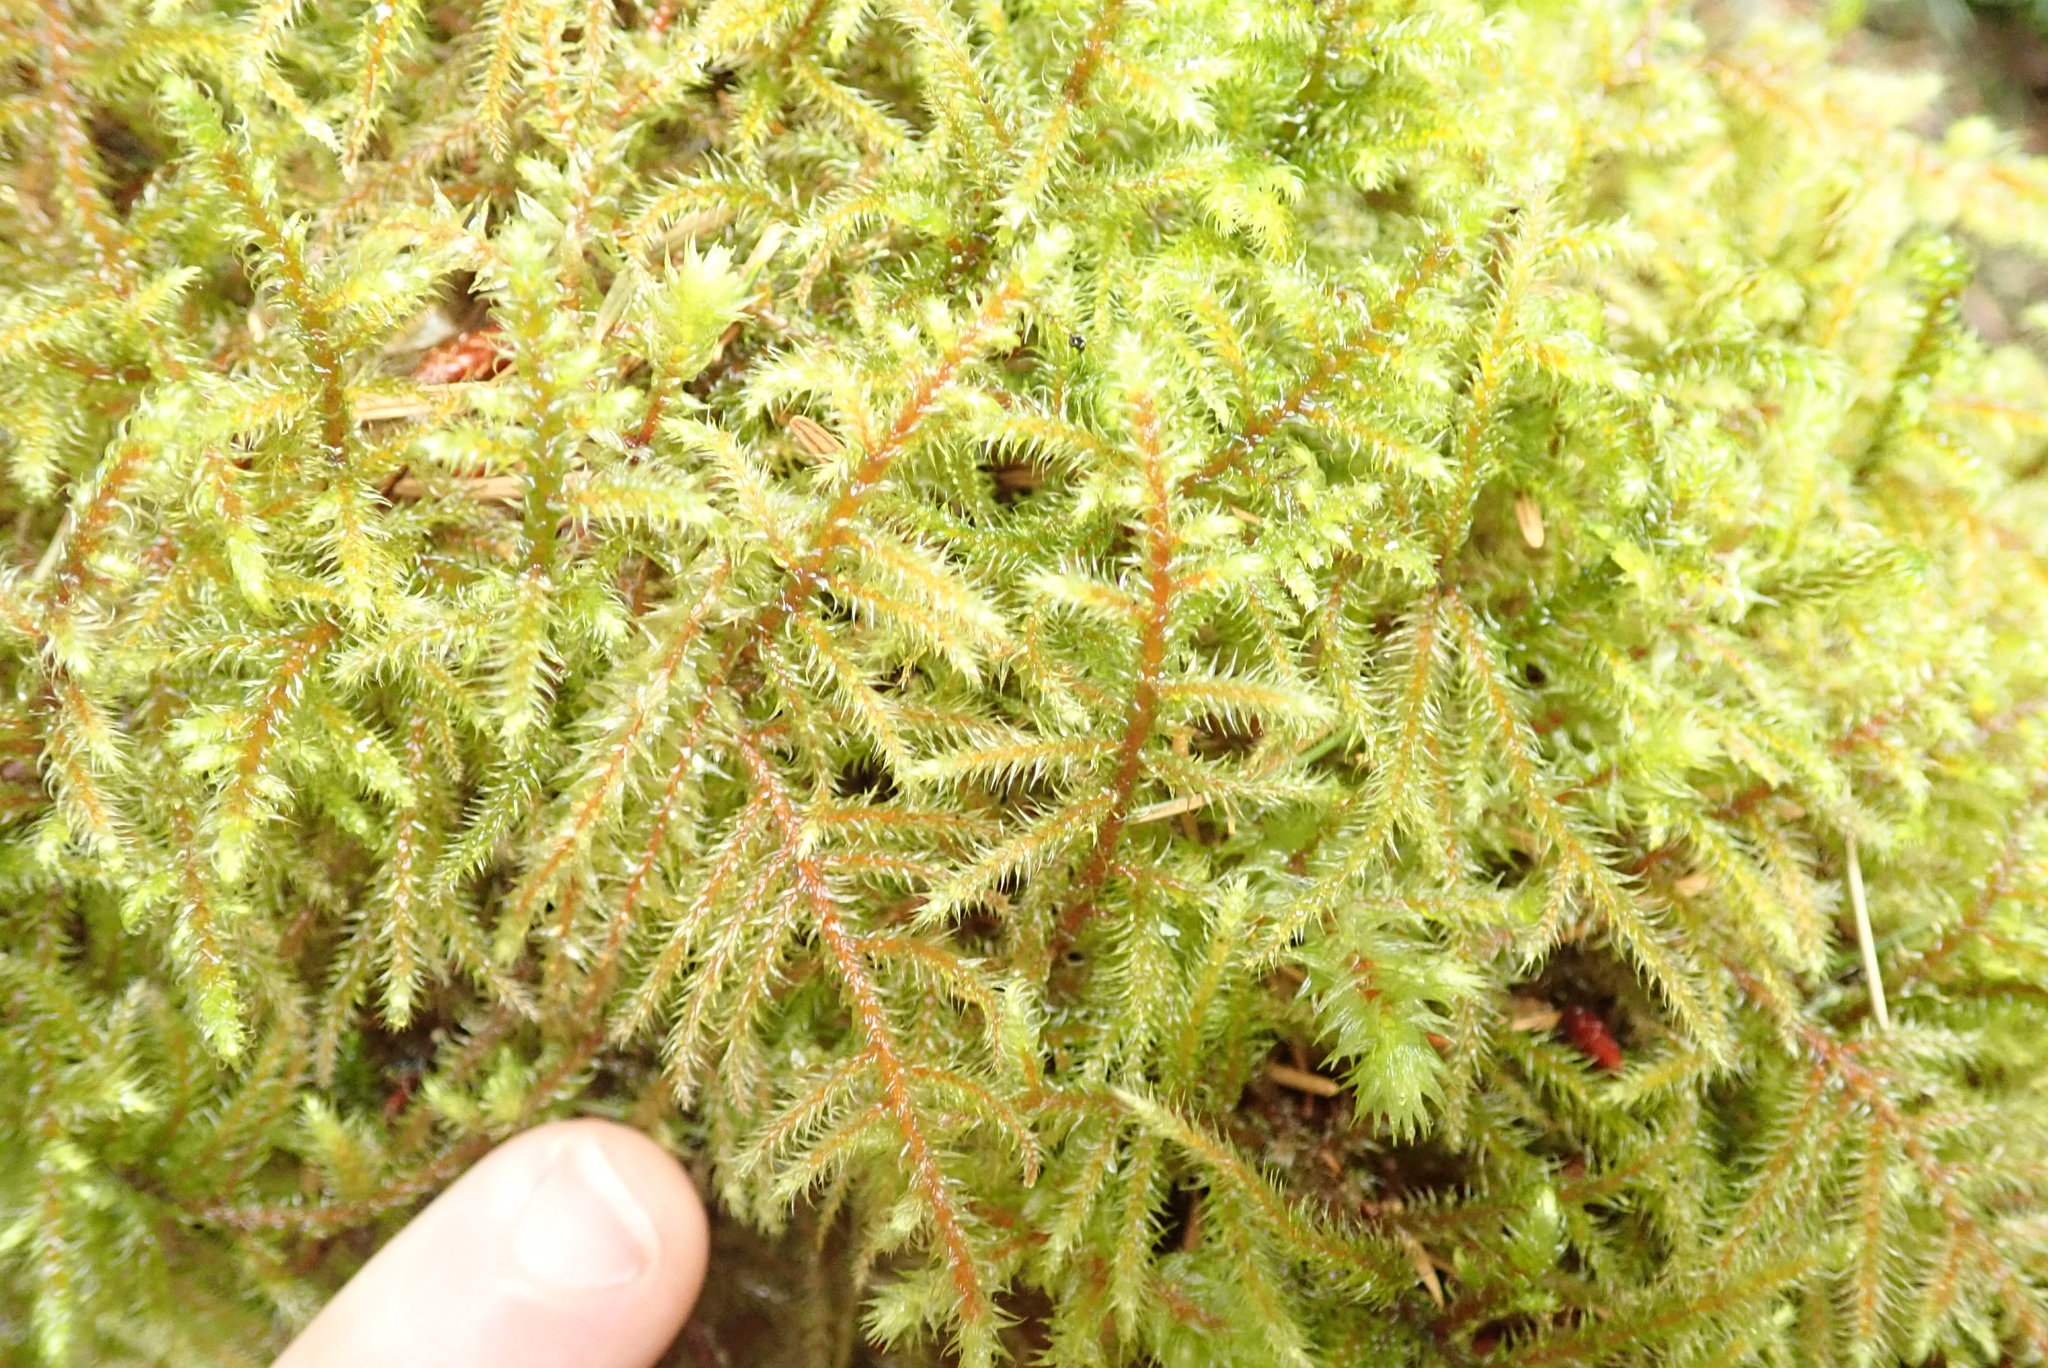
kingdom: Plantae
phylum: Bryophyta
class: Bryopsida
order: Hypnales
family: Hylocomiaceae
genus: Rhytidiadelphus
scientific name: Rhytidiadelphus loreus
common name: Lanky moss
